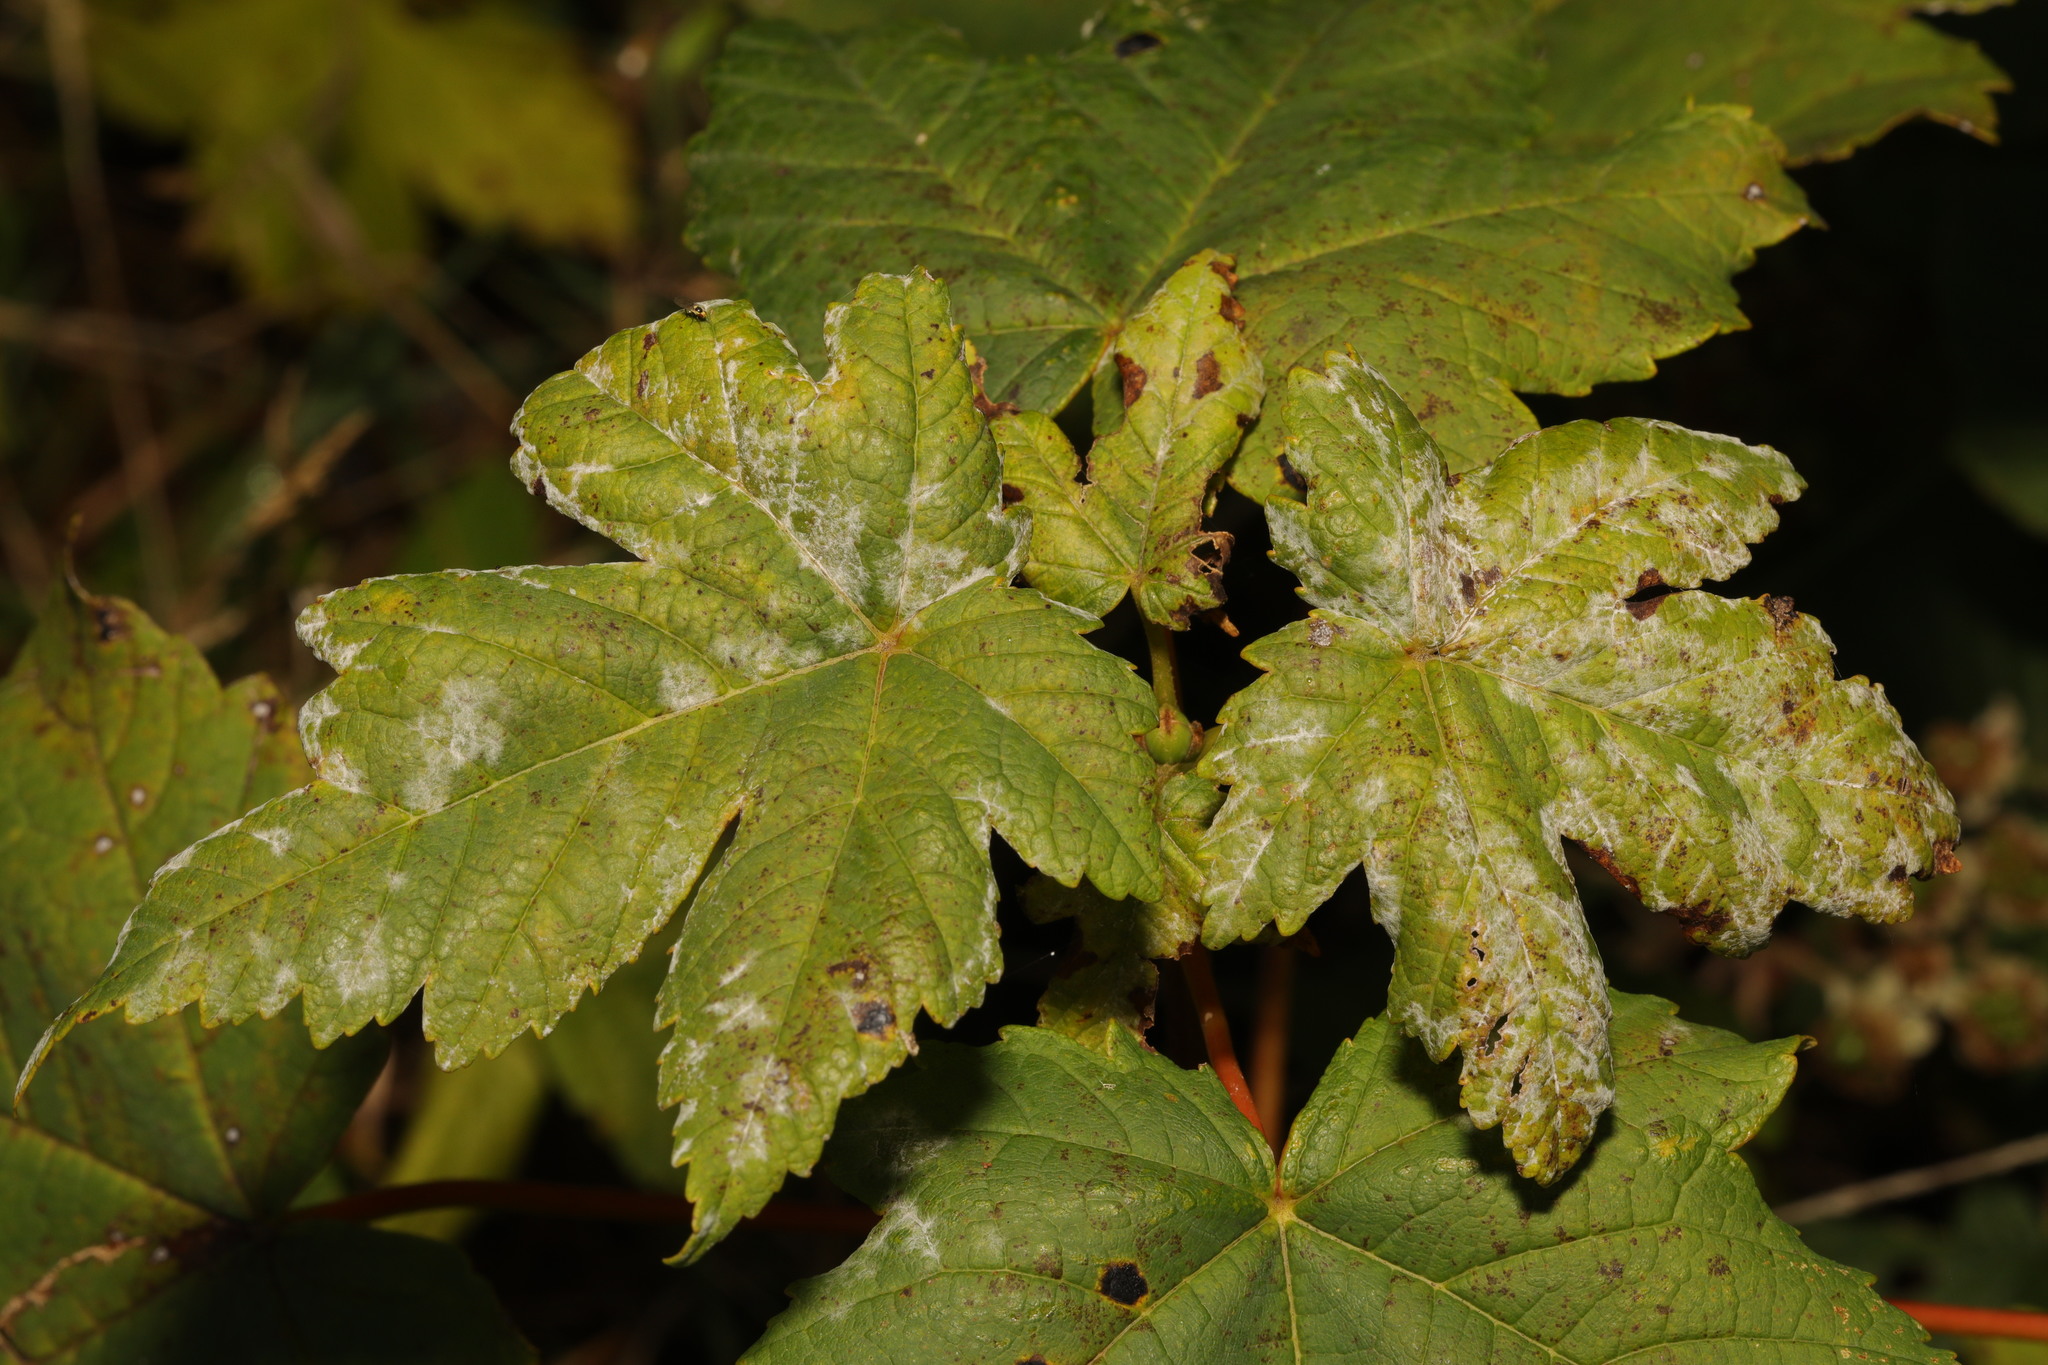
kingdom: Fungi
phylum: Ascomycota
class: Leotiomycetes
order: Helotiales
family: Erysiphaceae
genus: Sawadaea
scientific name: Sawadaea bicornis
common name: Maple mildew
